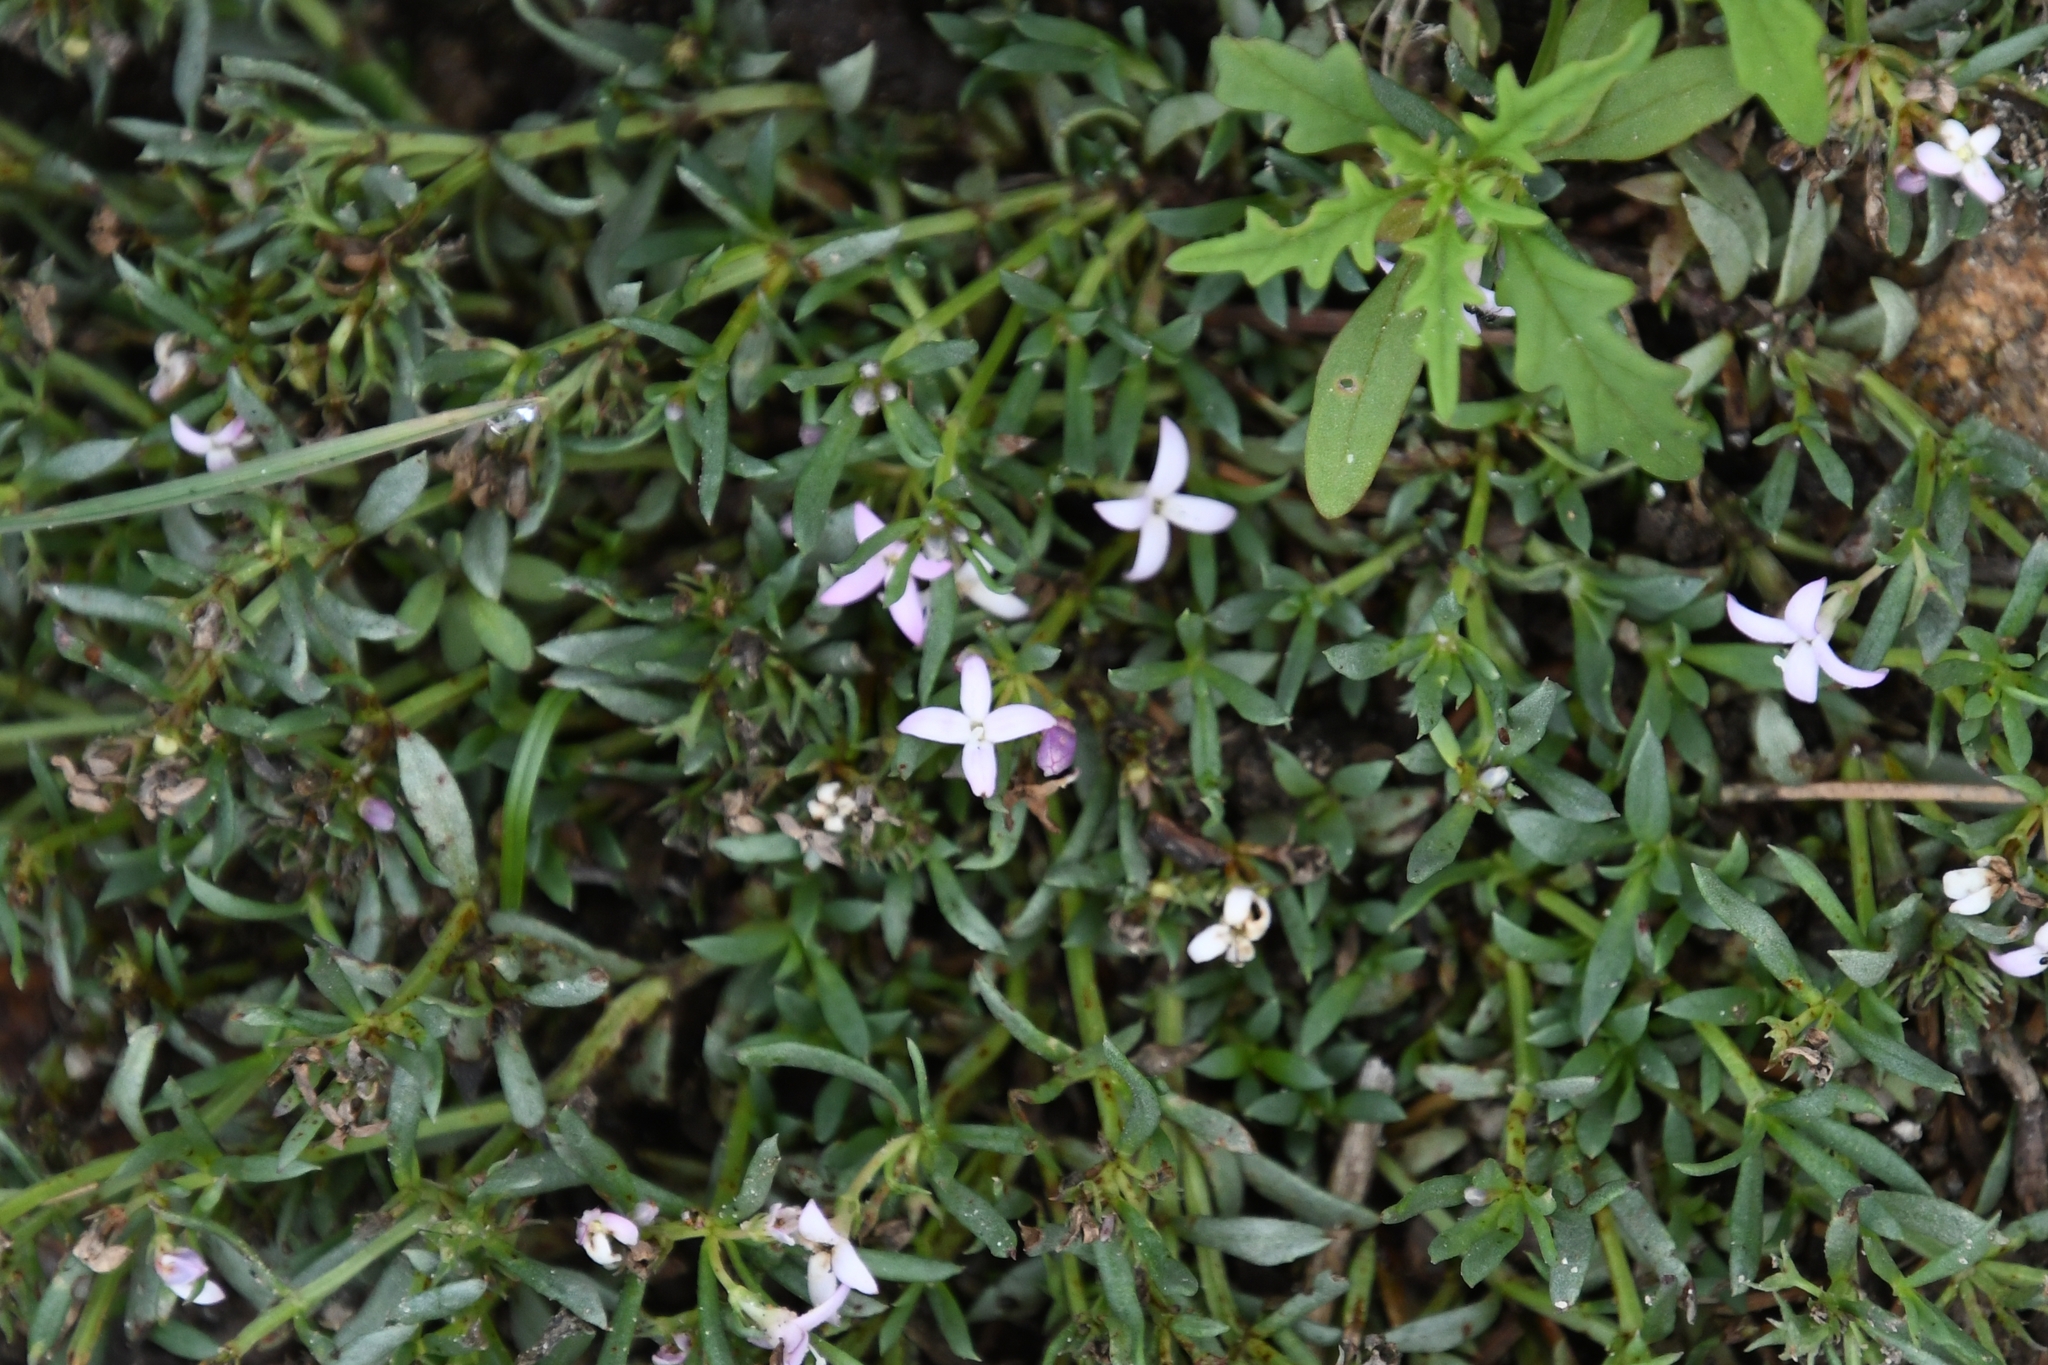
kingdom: Plantae
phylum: Tracheophyta
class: Magnoliopsida
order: Gentianales
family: Rubiaceae
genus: Houstonia
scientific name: Houstonia wrightii
